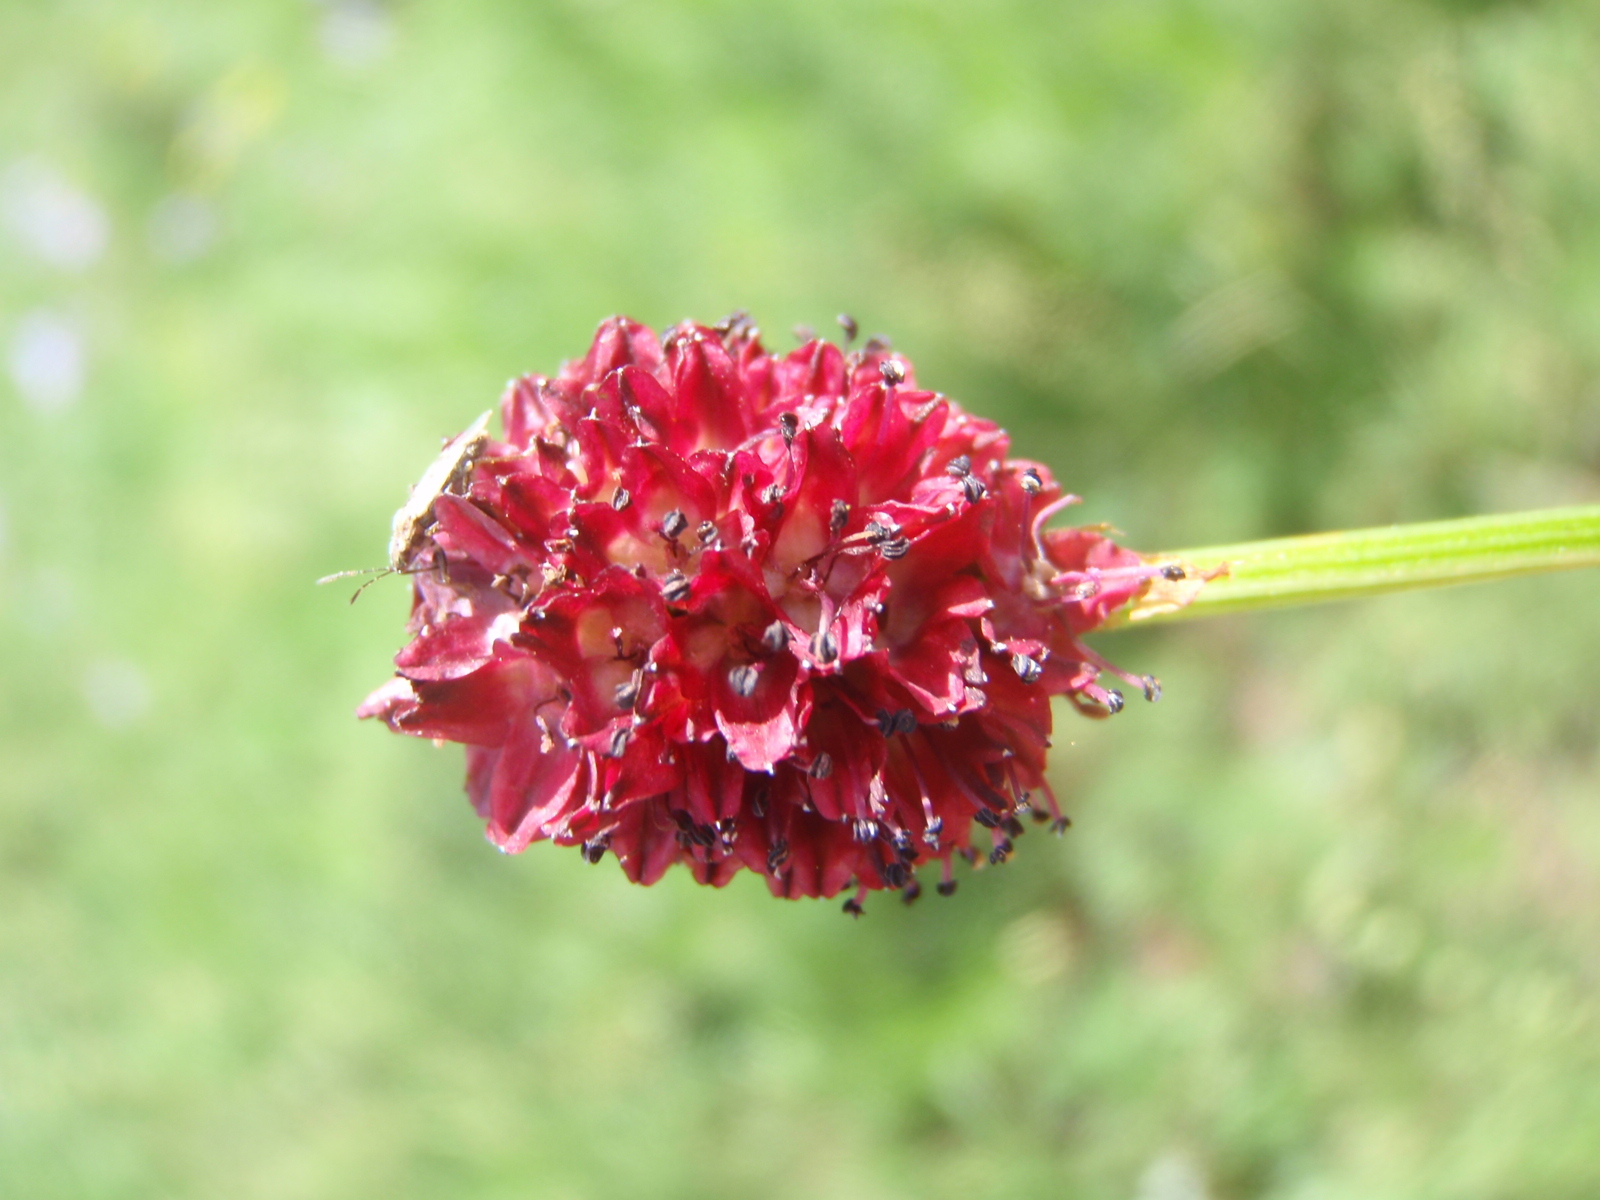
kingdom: Plantae
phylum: Tracheophyta
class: Magnoliopsida
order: Rosales
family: Rosaceae
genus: Sanguisorba
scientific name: Sanguisorba officinalis
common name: Great burnet
